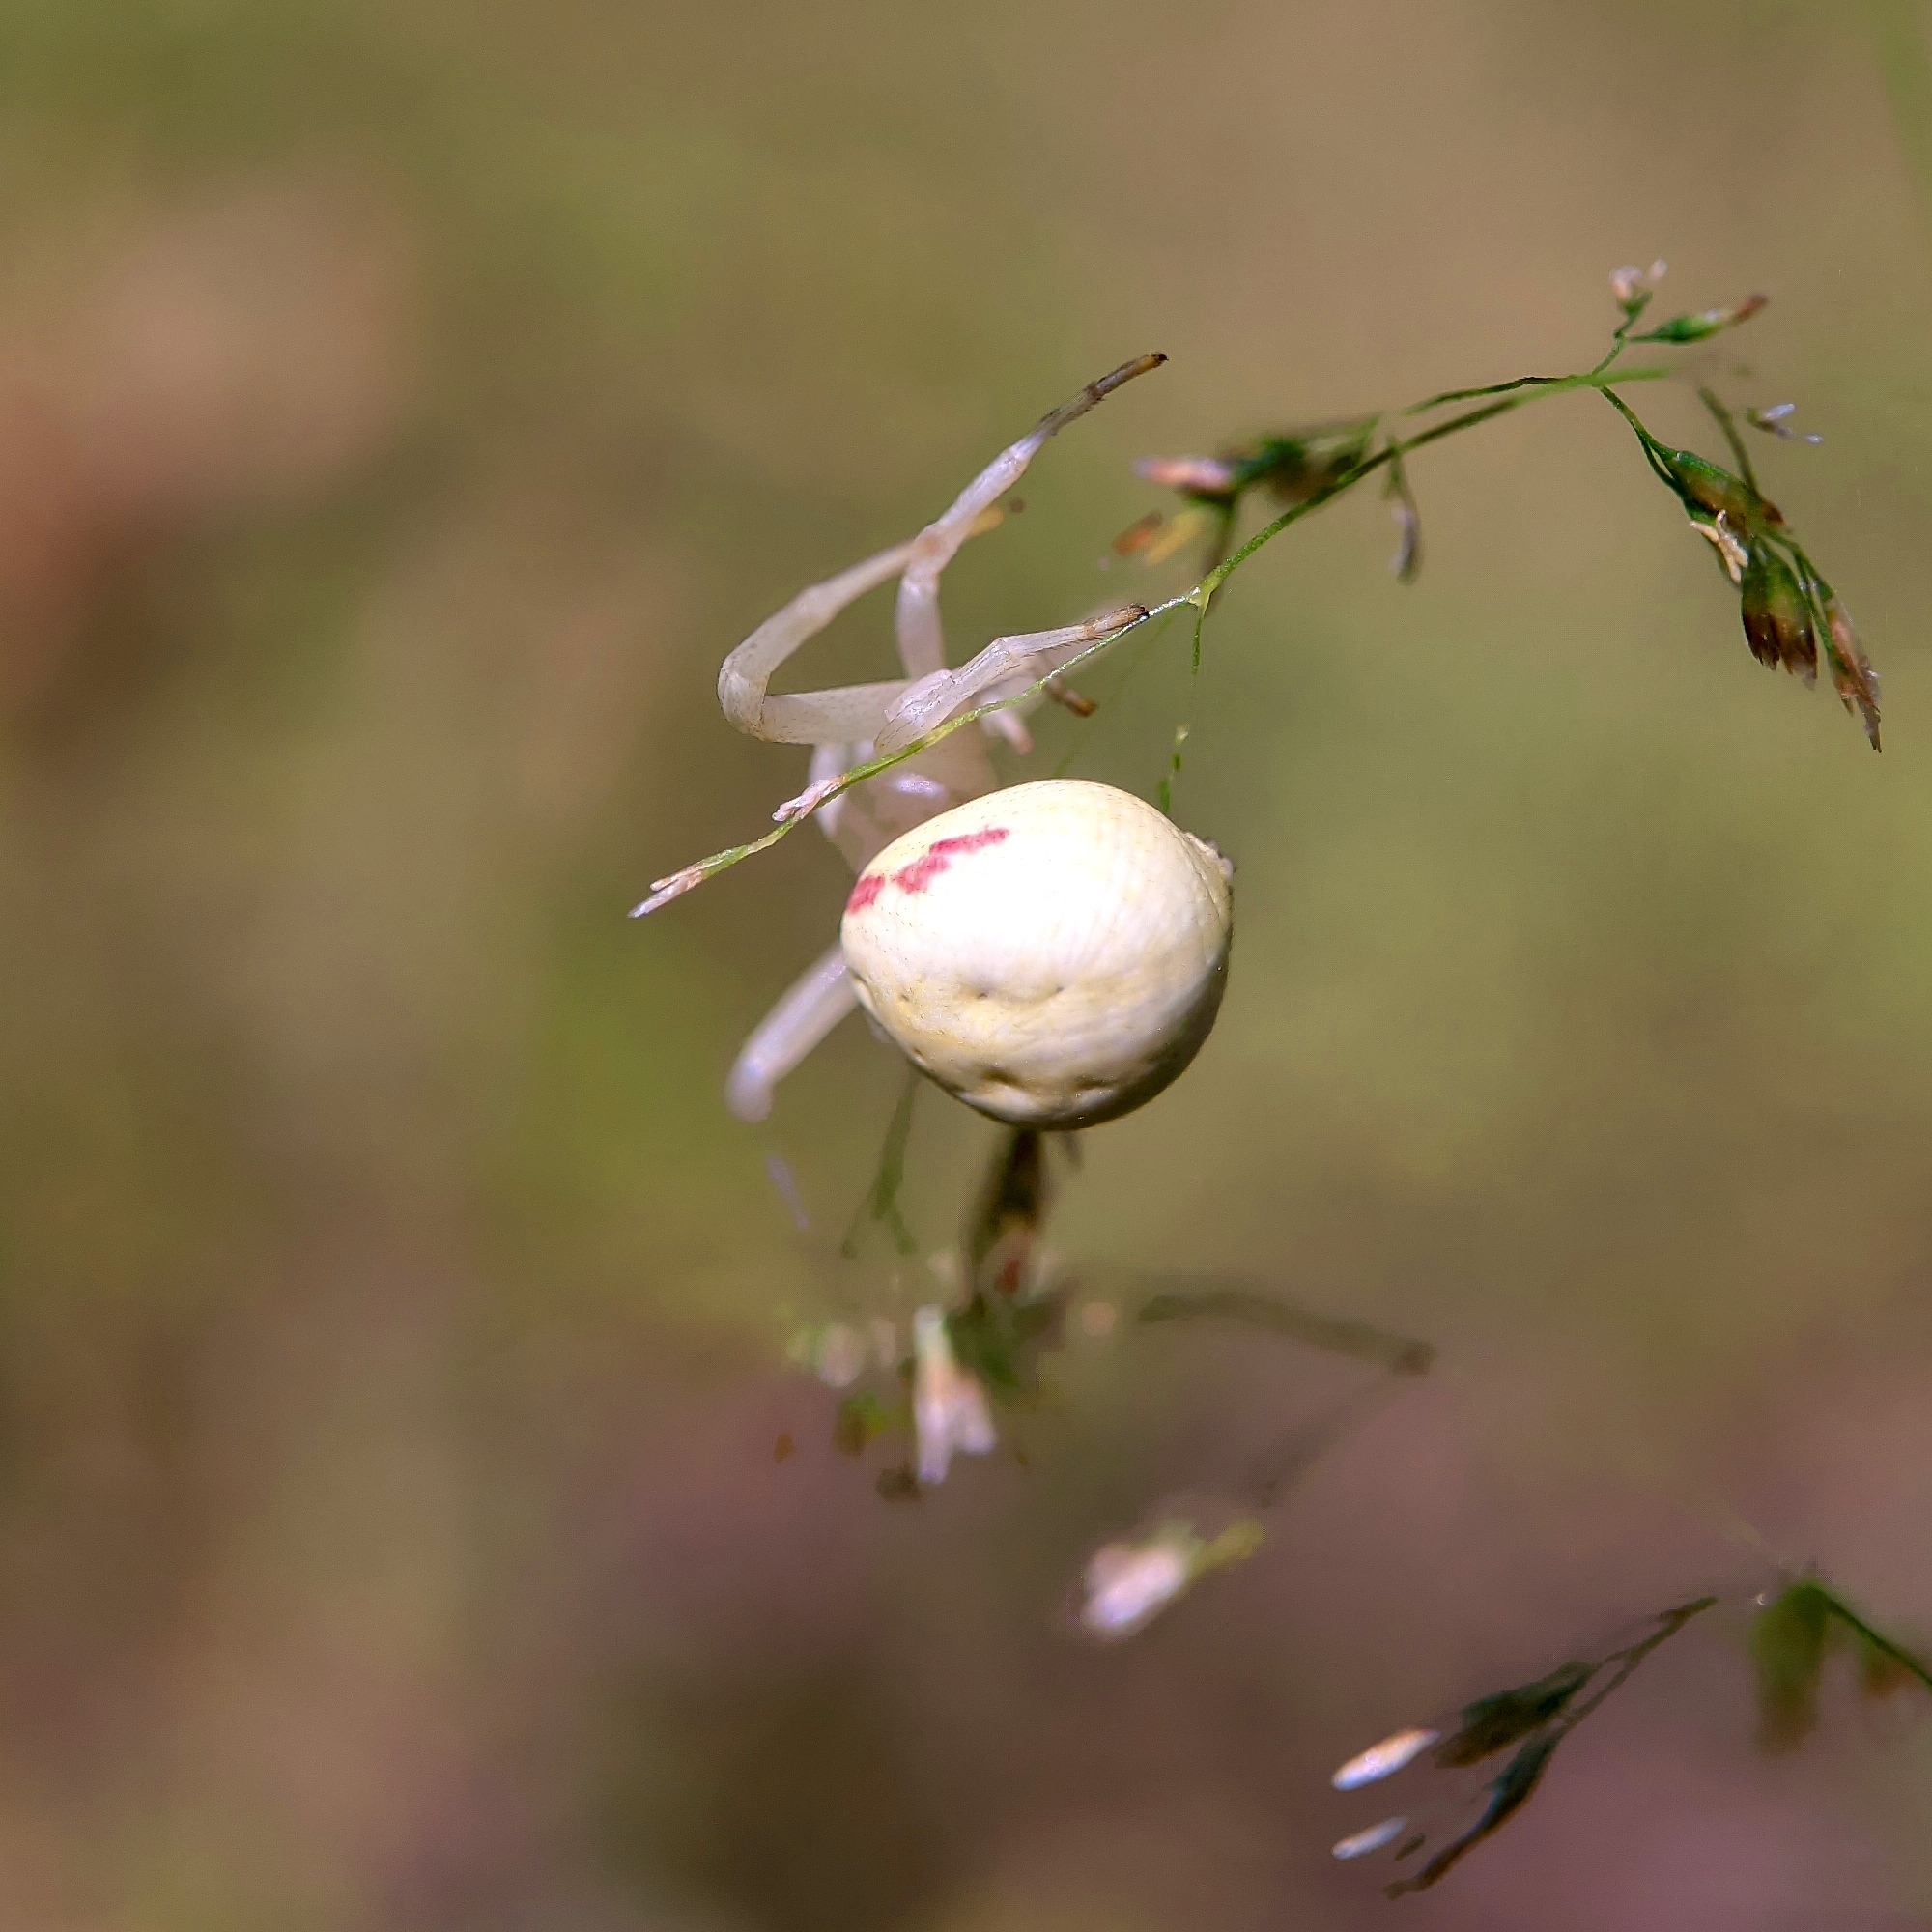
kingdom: Animalia
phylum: Arthropoda
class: Arachnida
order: Araneae
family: Thomisidae
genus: Misumena
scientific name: Misumena vatia
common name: Goldenrod crab spider
